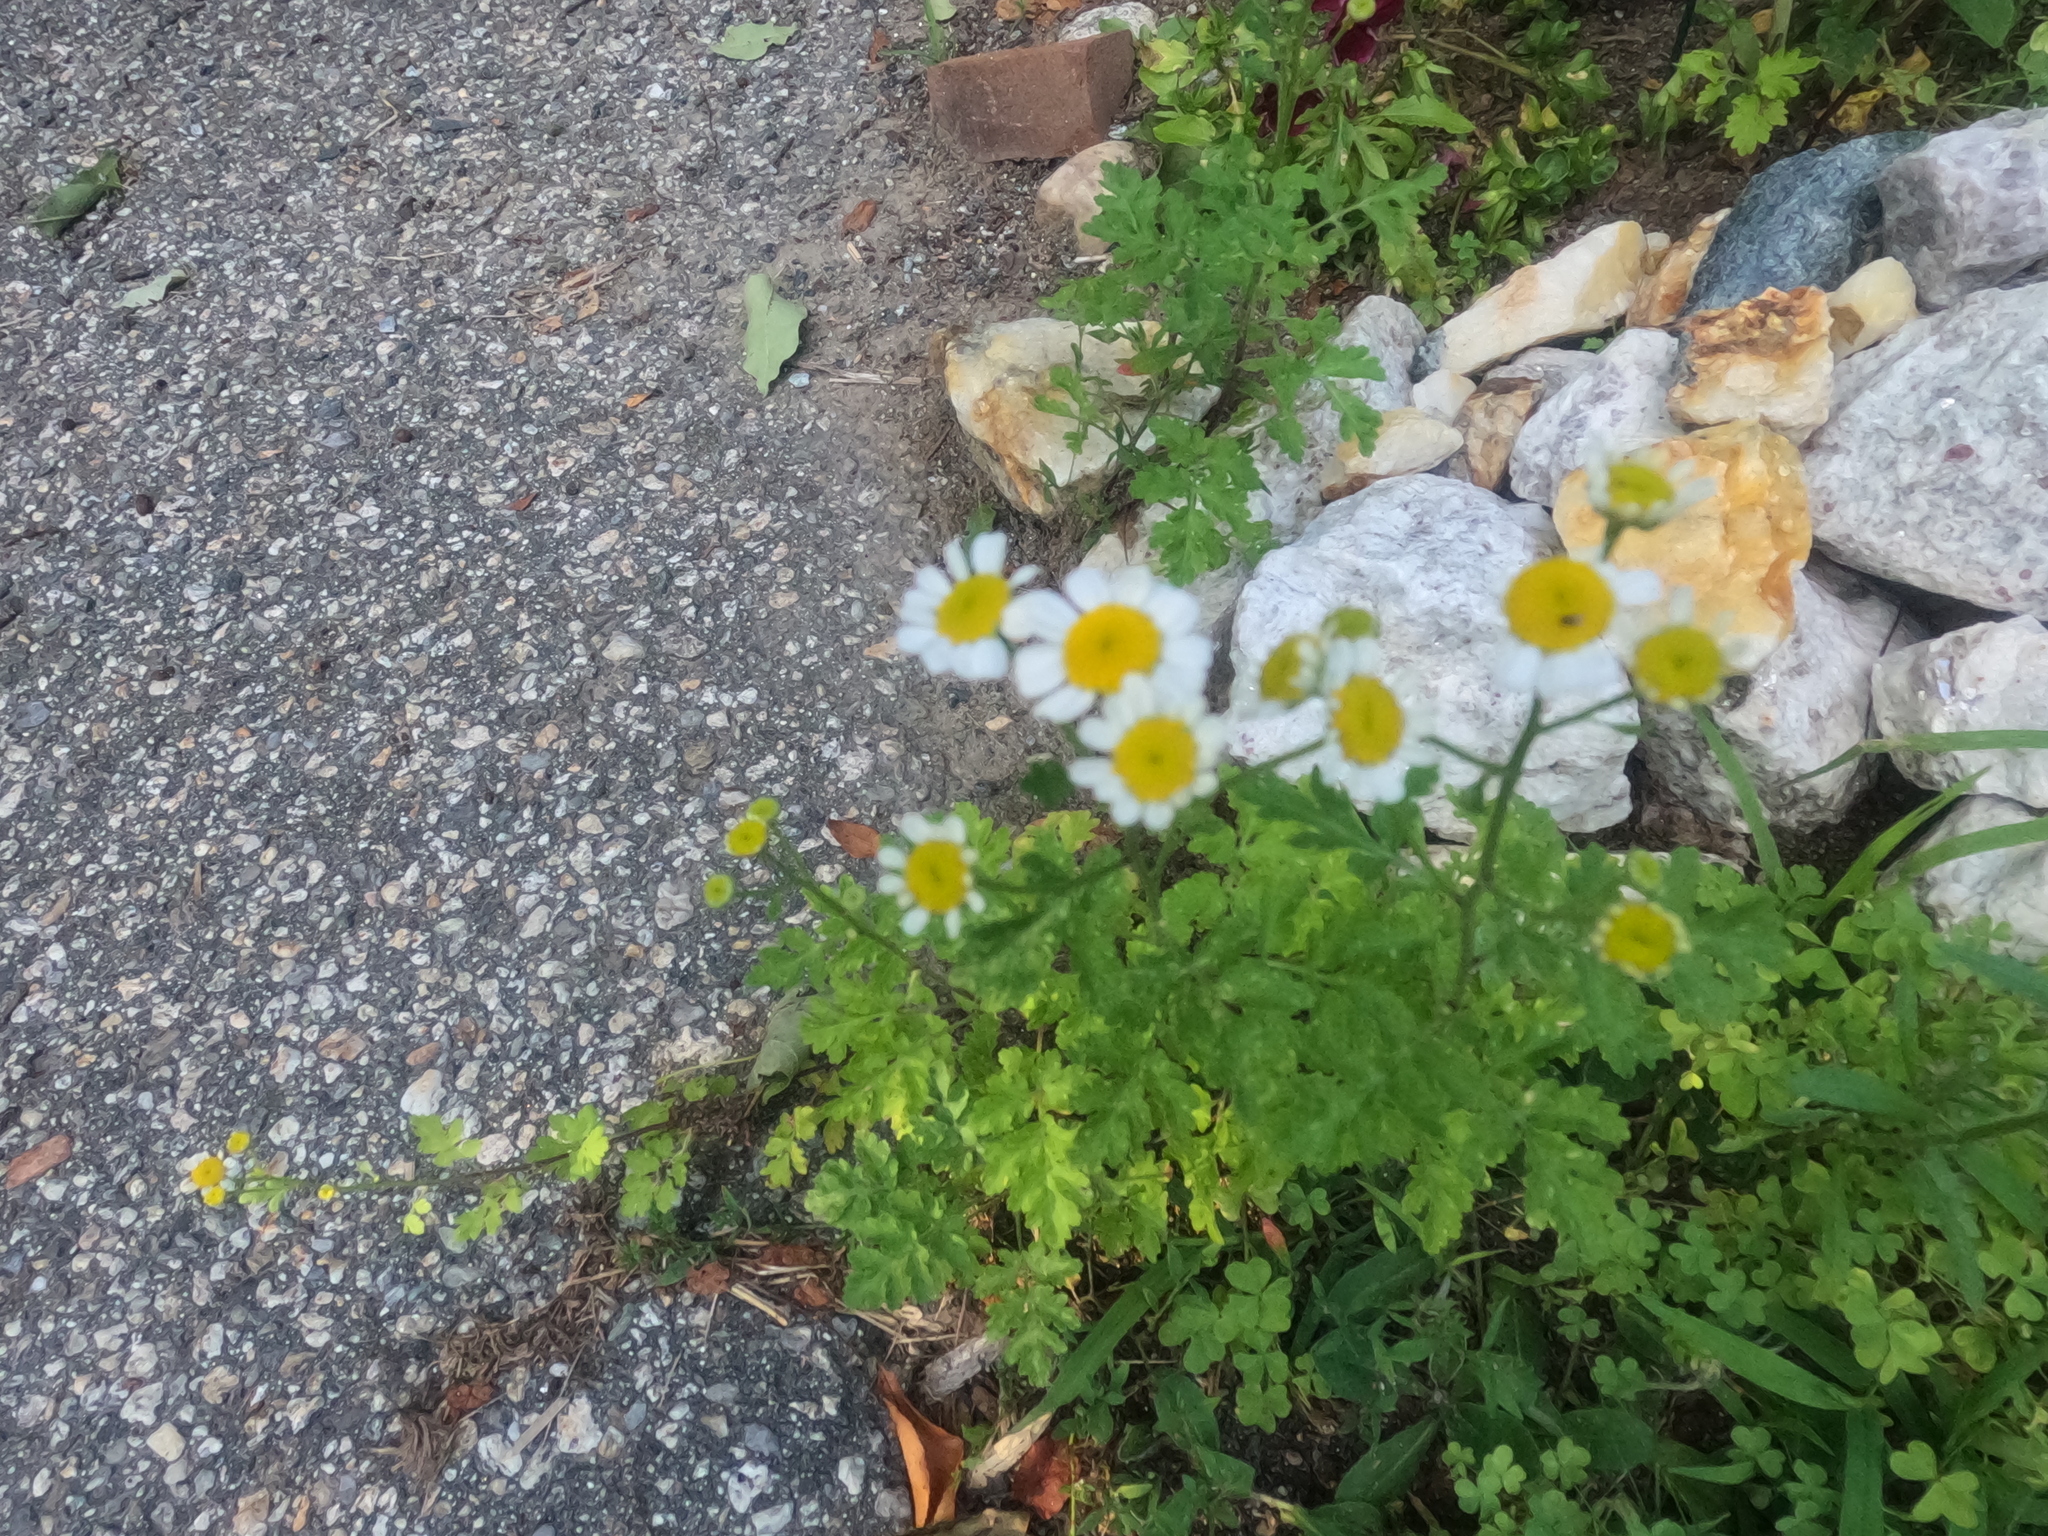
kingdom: Plantae
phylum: Tracheophyta
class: Magnoliopsida
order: Asterales
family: Asteraceae
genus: Tanacetum
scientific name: Tanacetum parthenium
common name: Feverfew
